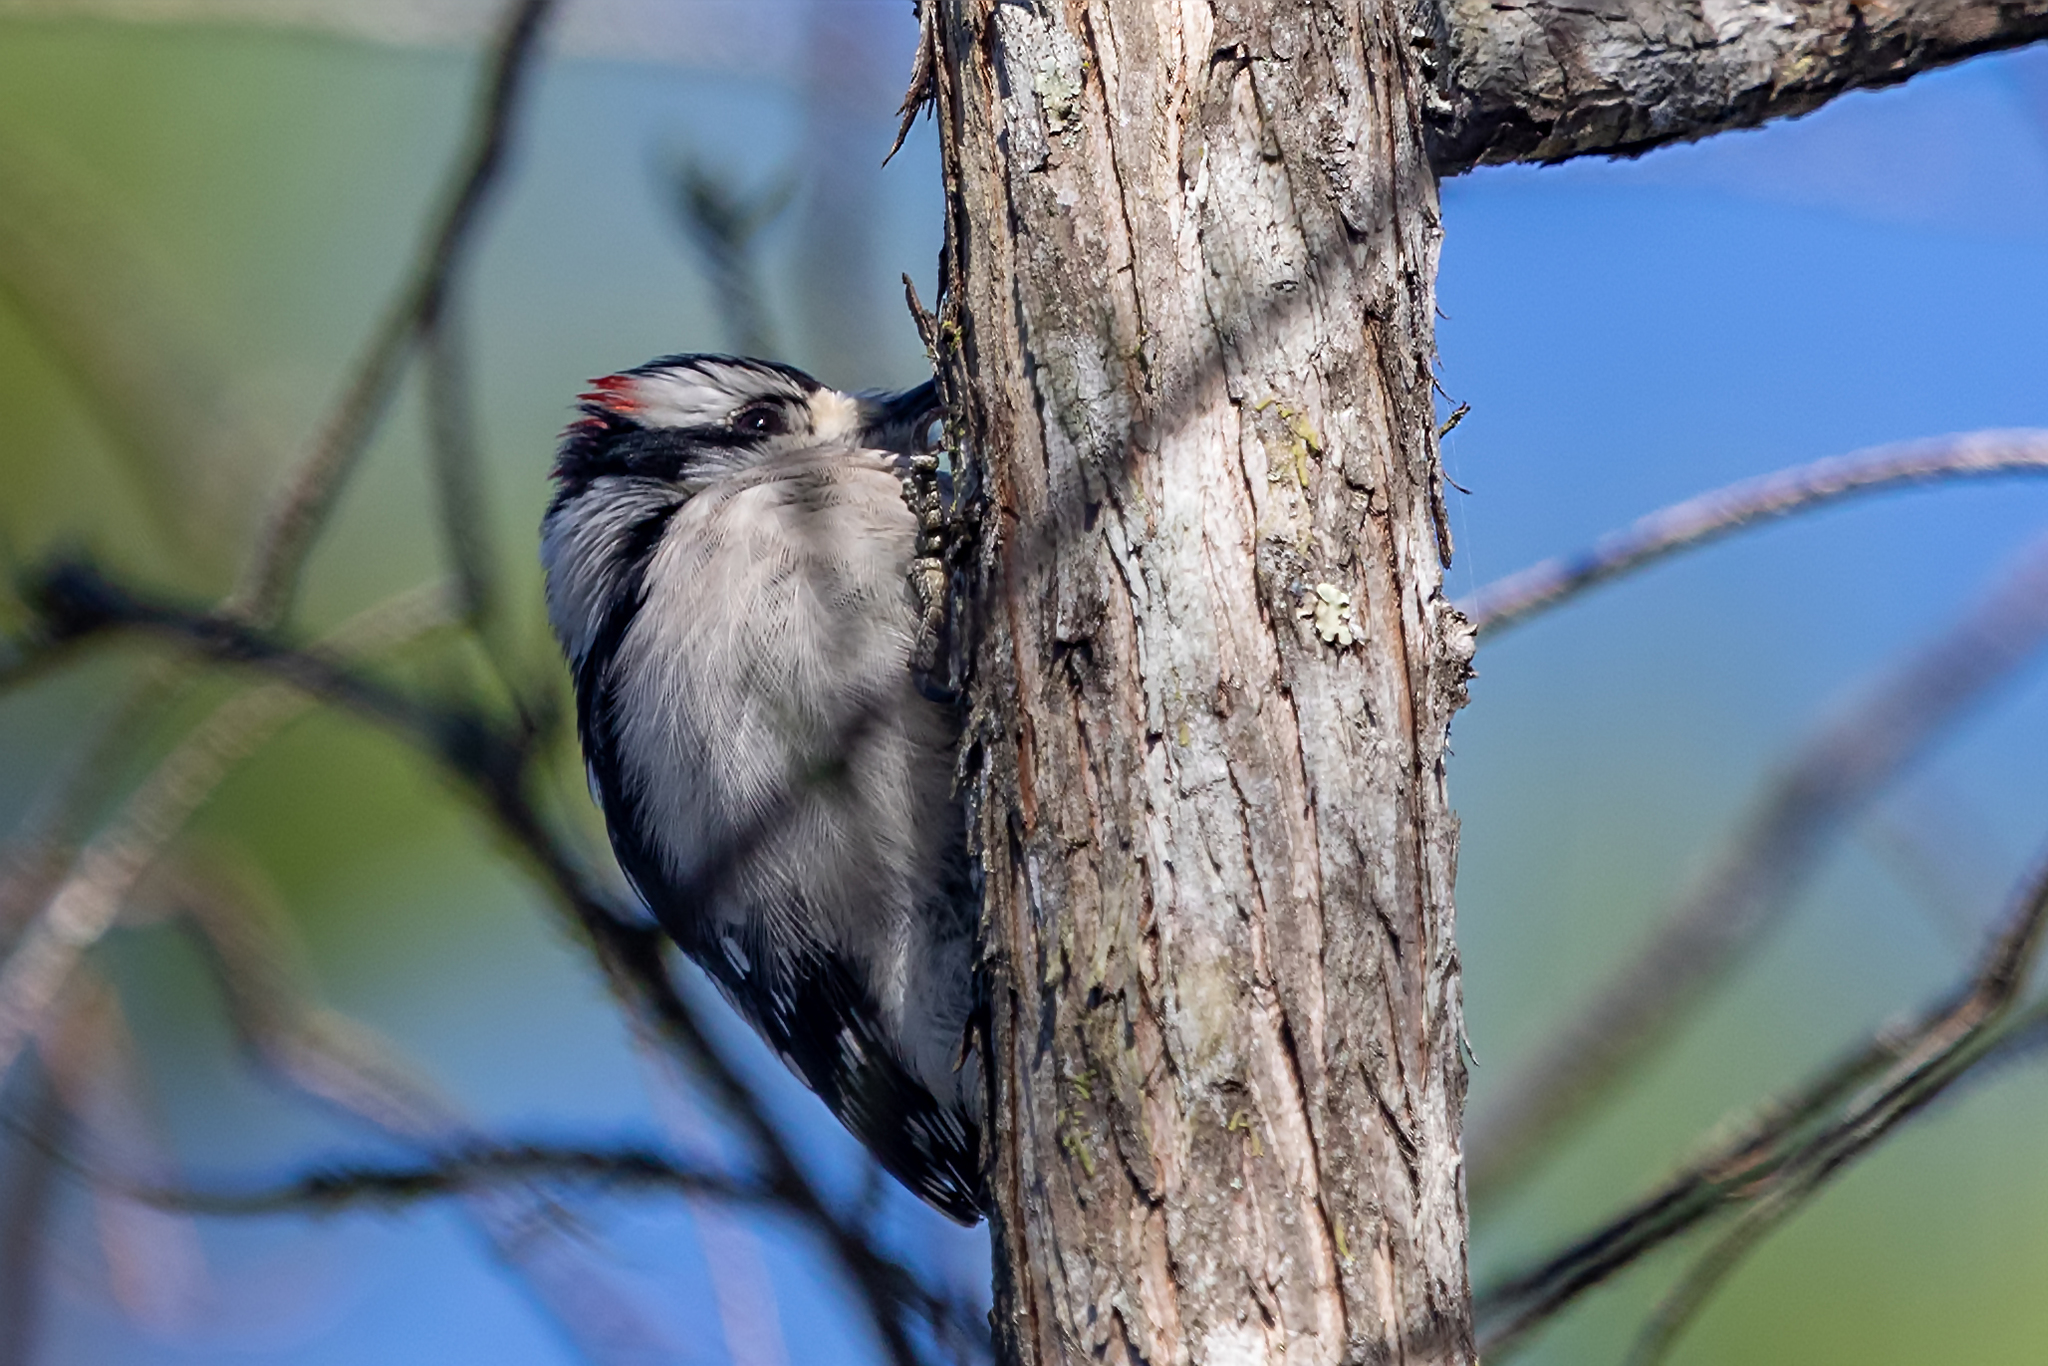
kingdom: Animalia
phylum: Chordata
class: Aves
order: Piciformes
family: Picidae
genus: Dryobates
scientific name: Dryobates pubescens
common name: Downy woodpecker
